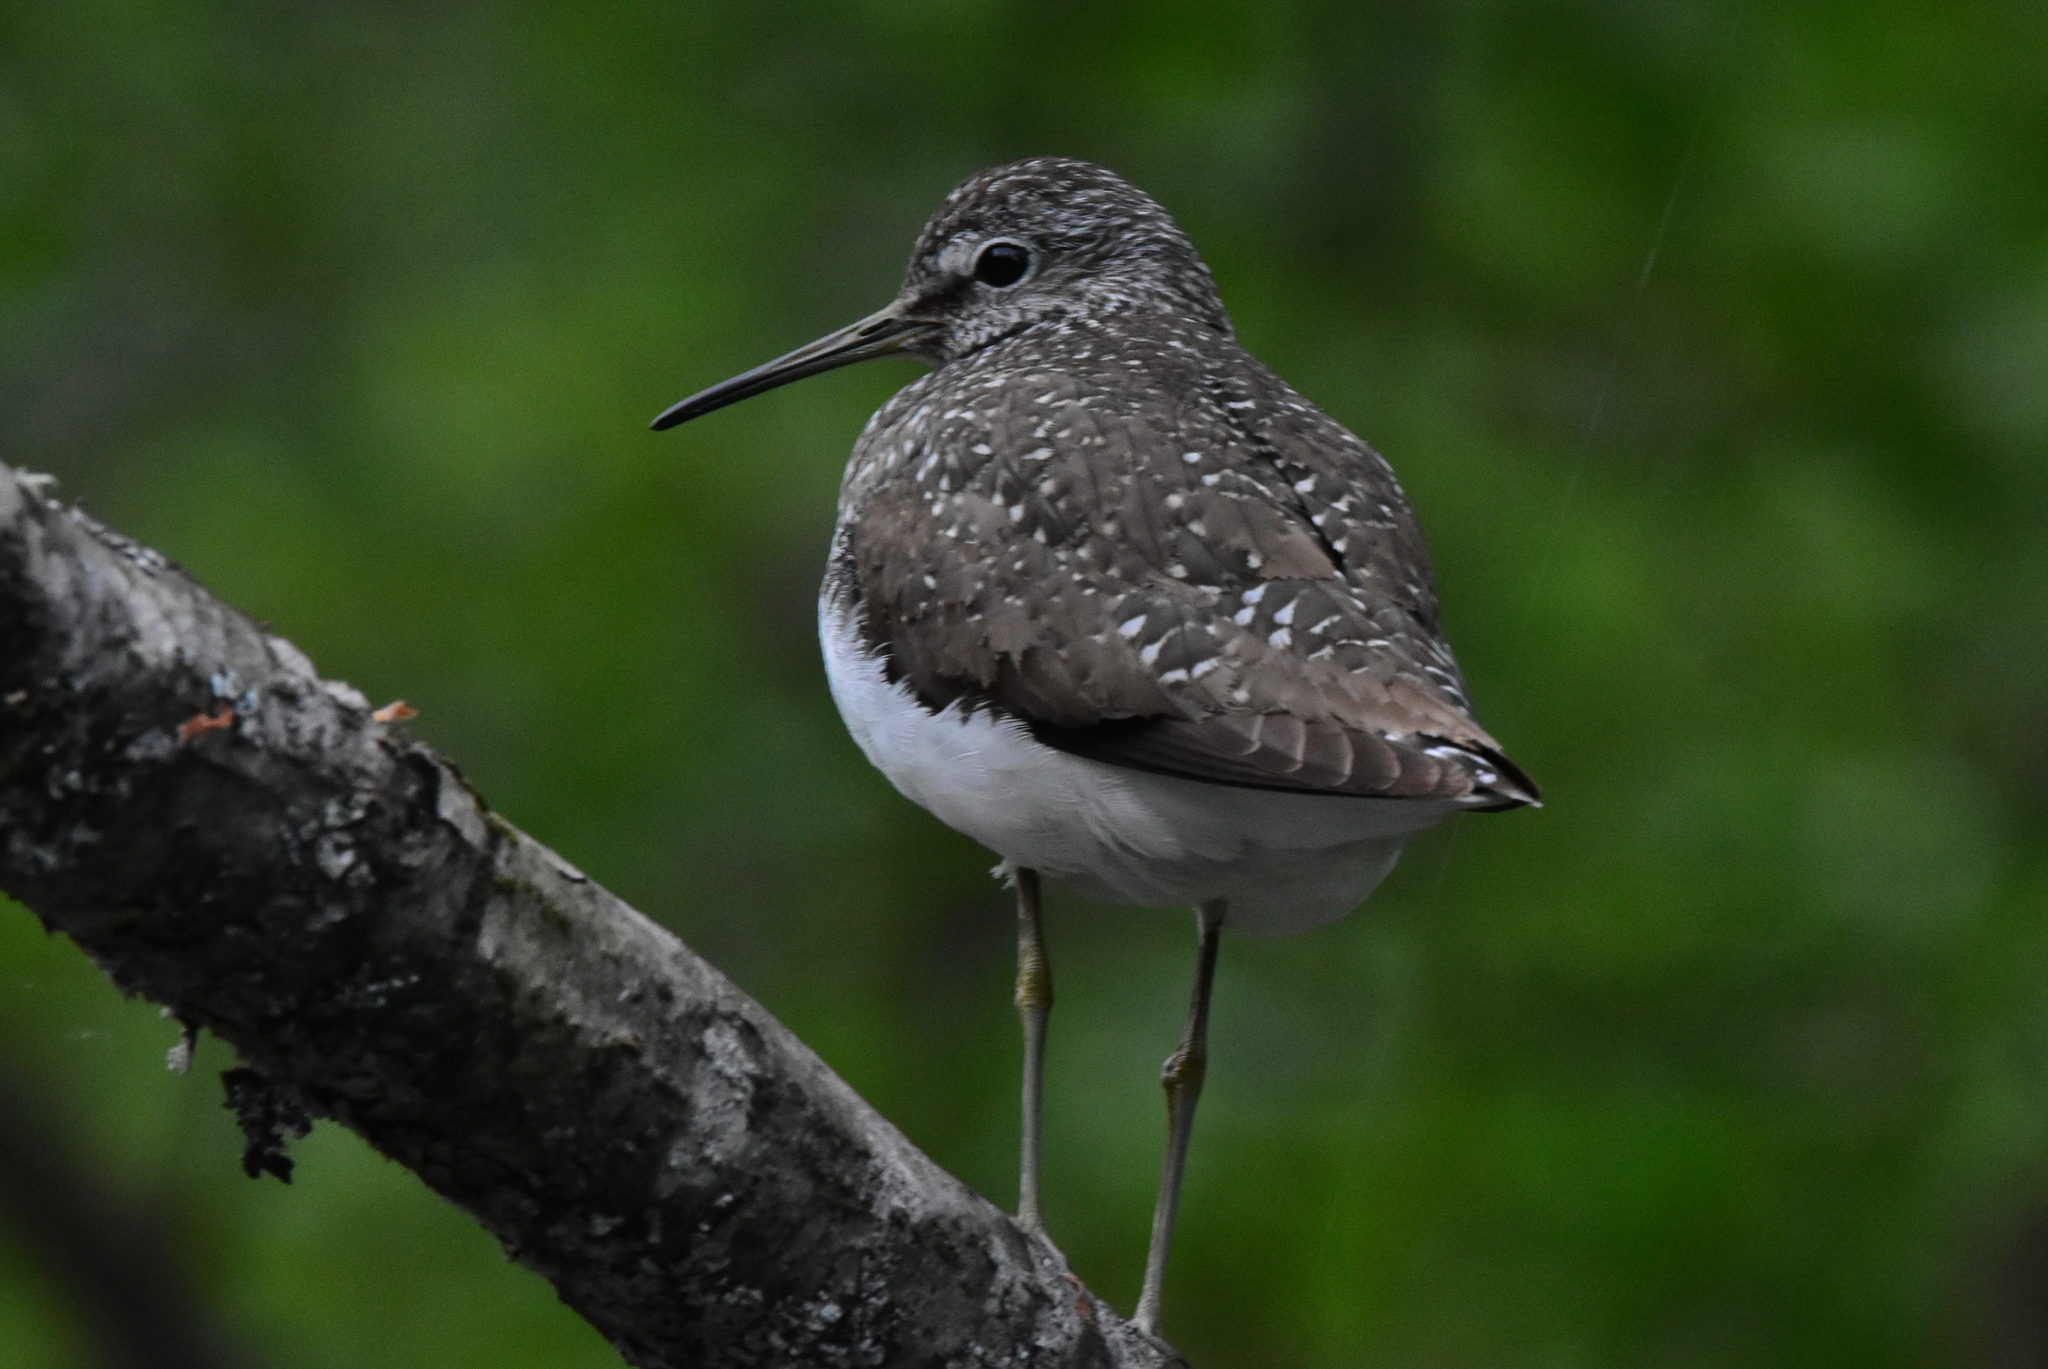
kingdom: Animalia
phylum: Chordata
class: Aves
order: Charadriiformes
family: Scolopacidae
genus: Tringa
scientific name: Tringa ochropus
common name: Green sandpiper
